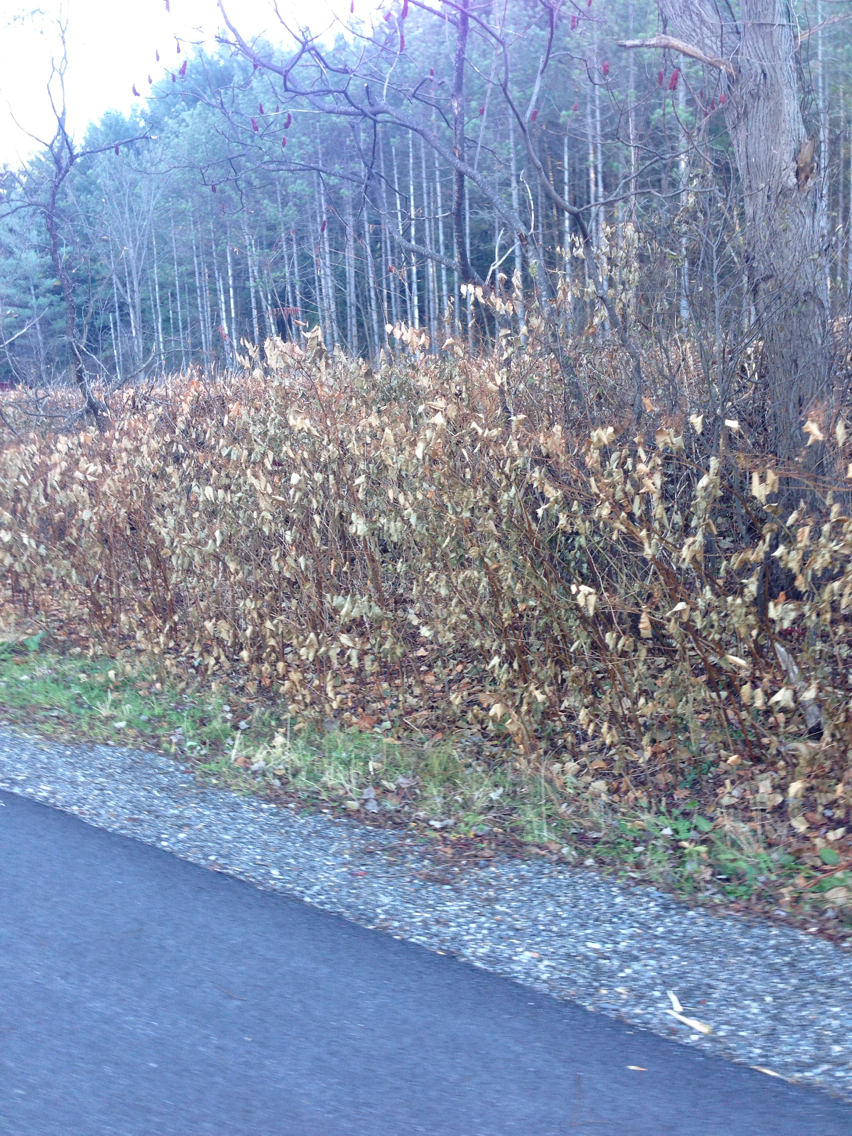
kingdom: Plantae
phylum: Tracheophyta
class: Magnoliopsida
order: Caryophyllales
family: Polygonaceae
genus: Reynoutria
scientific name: Reynoutria japonica
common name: Japanese knotweed
